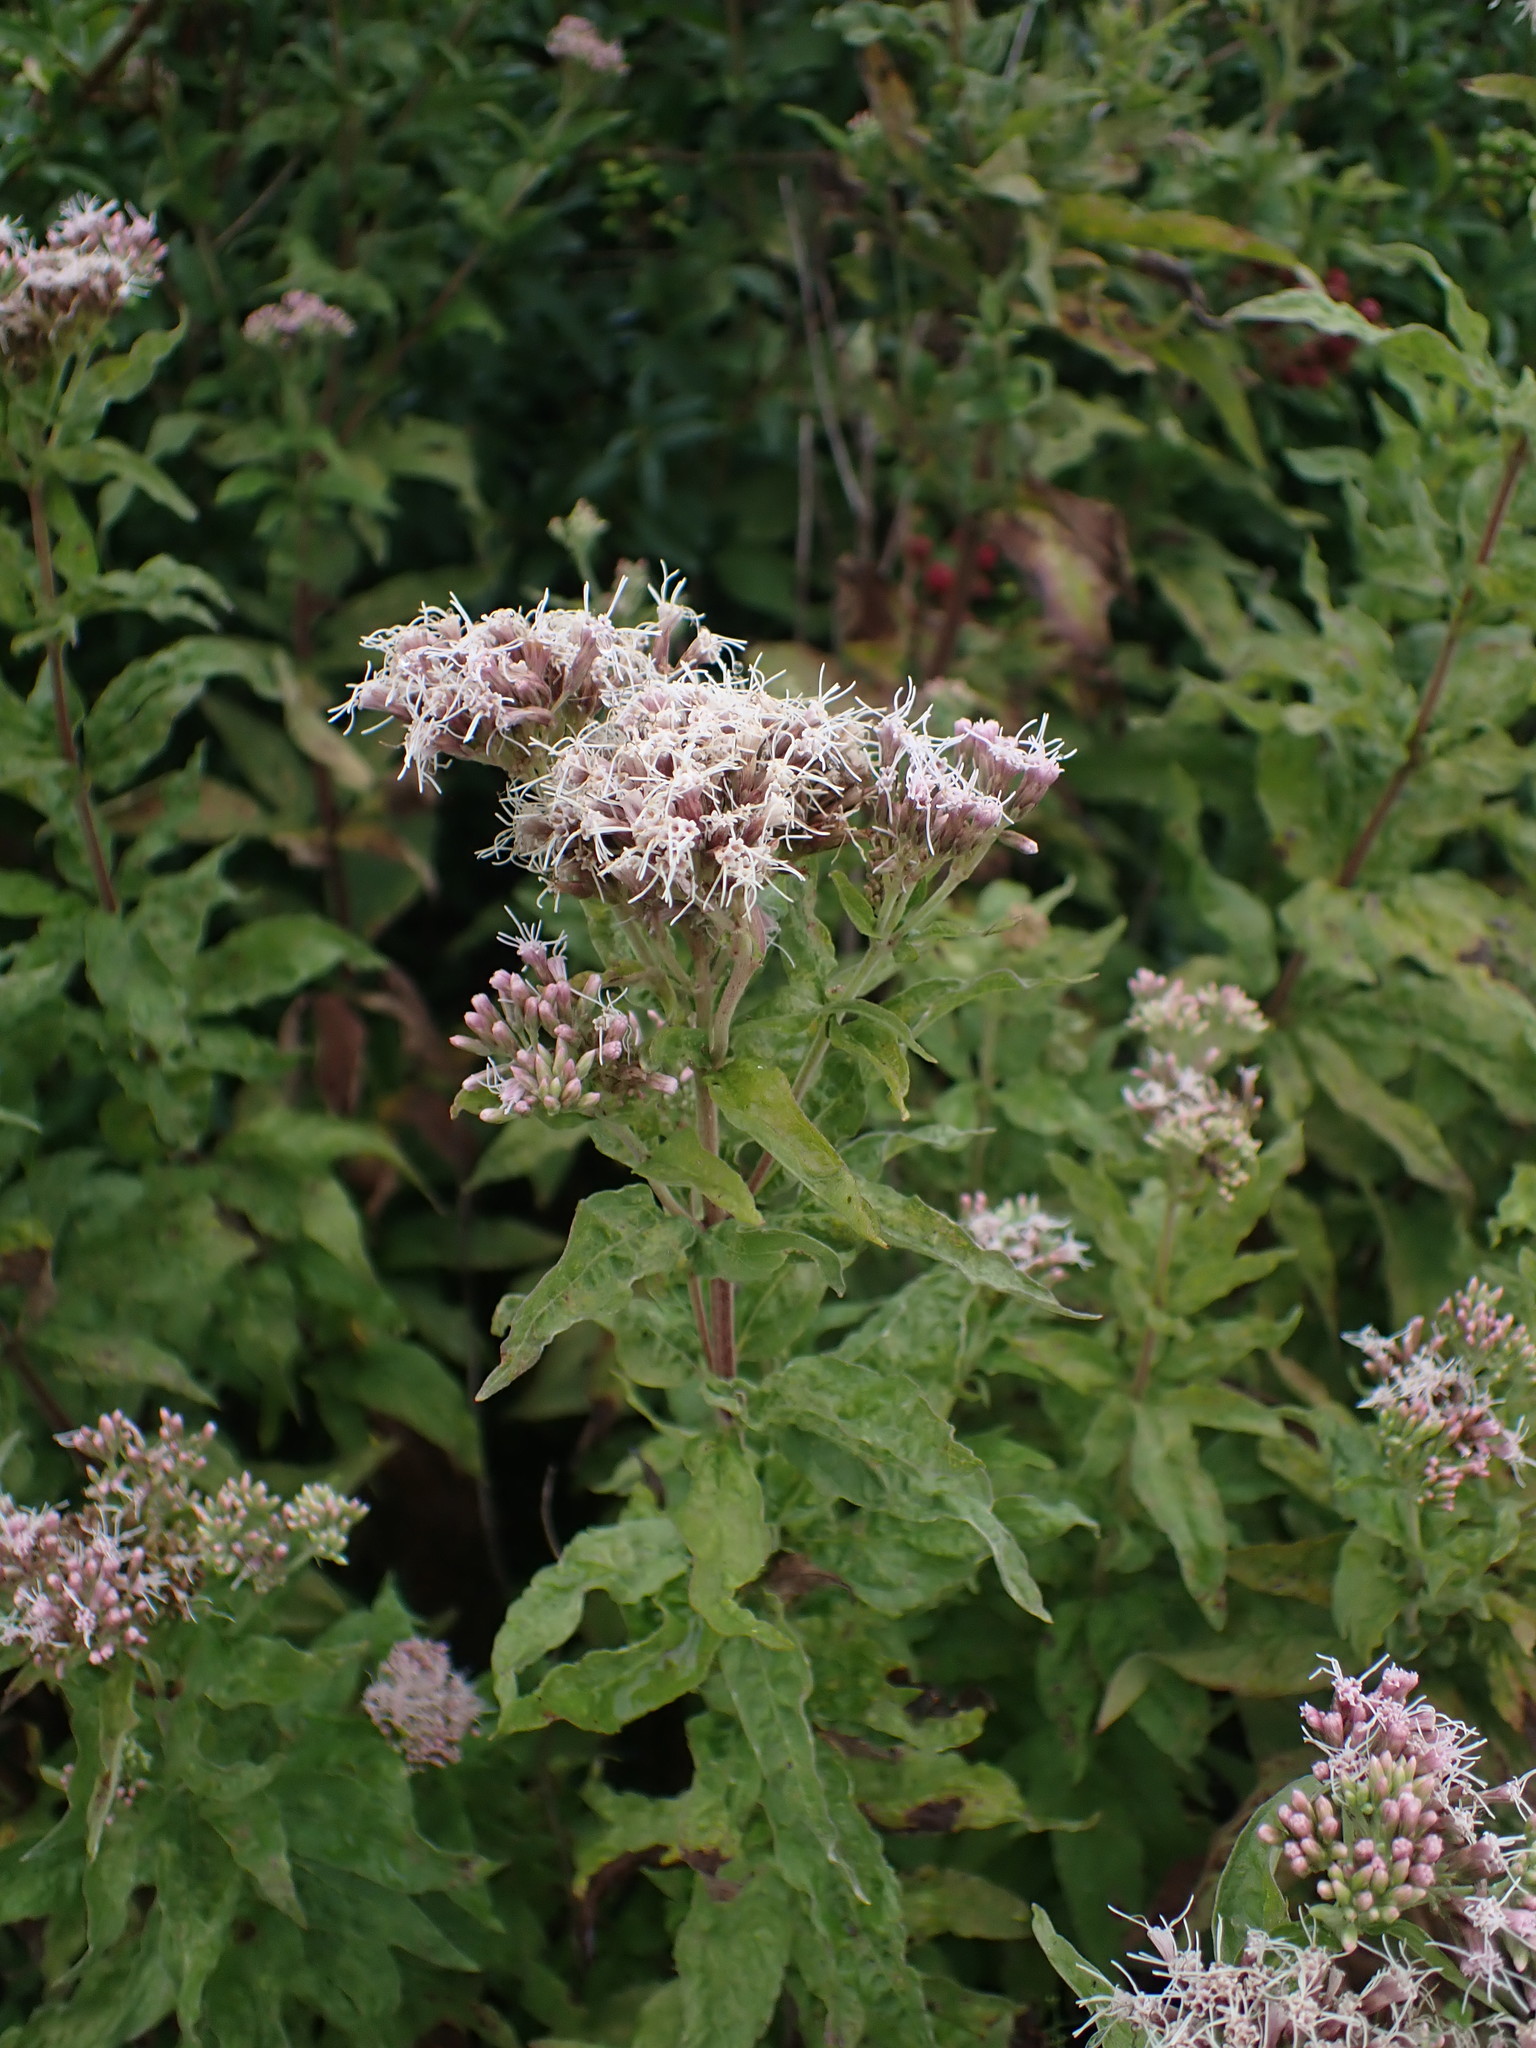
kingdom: Plantae
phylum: Tracheophyta
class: Magnoliopsida
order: Asterales
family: Asteraceae
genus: Eupatorium
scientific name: Eupatorium cannabinum
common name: Hemp-agrimony
